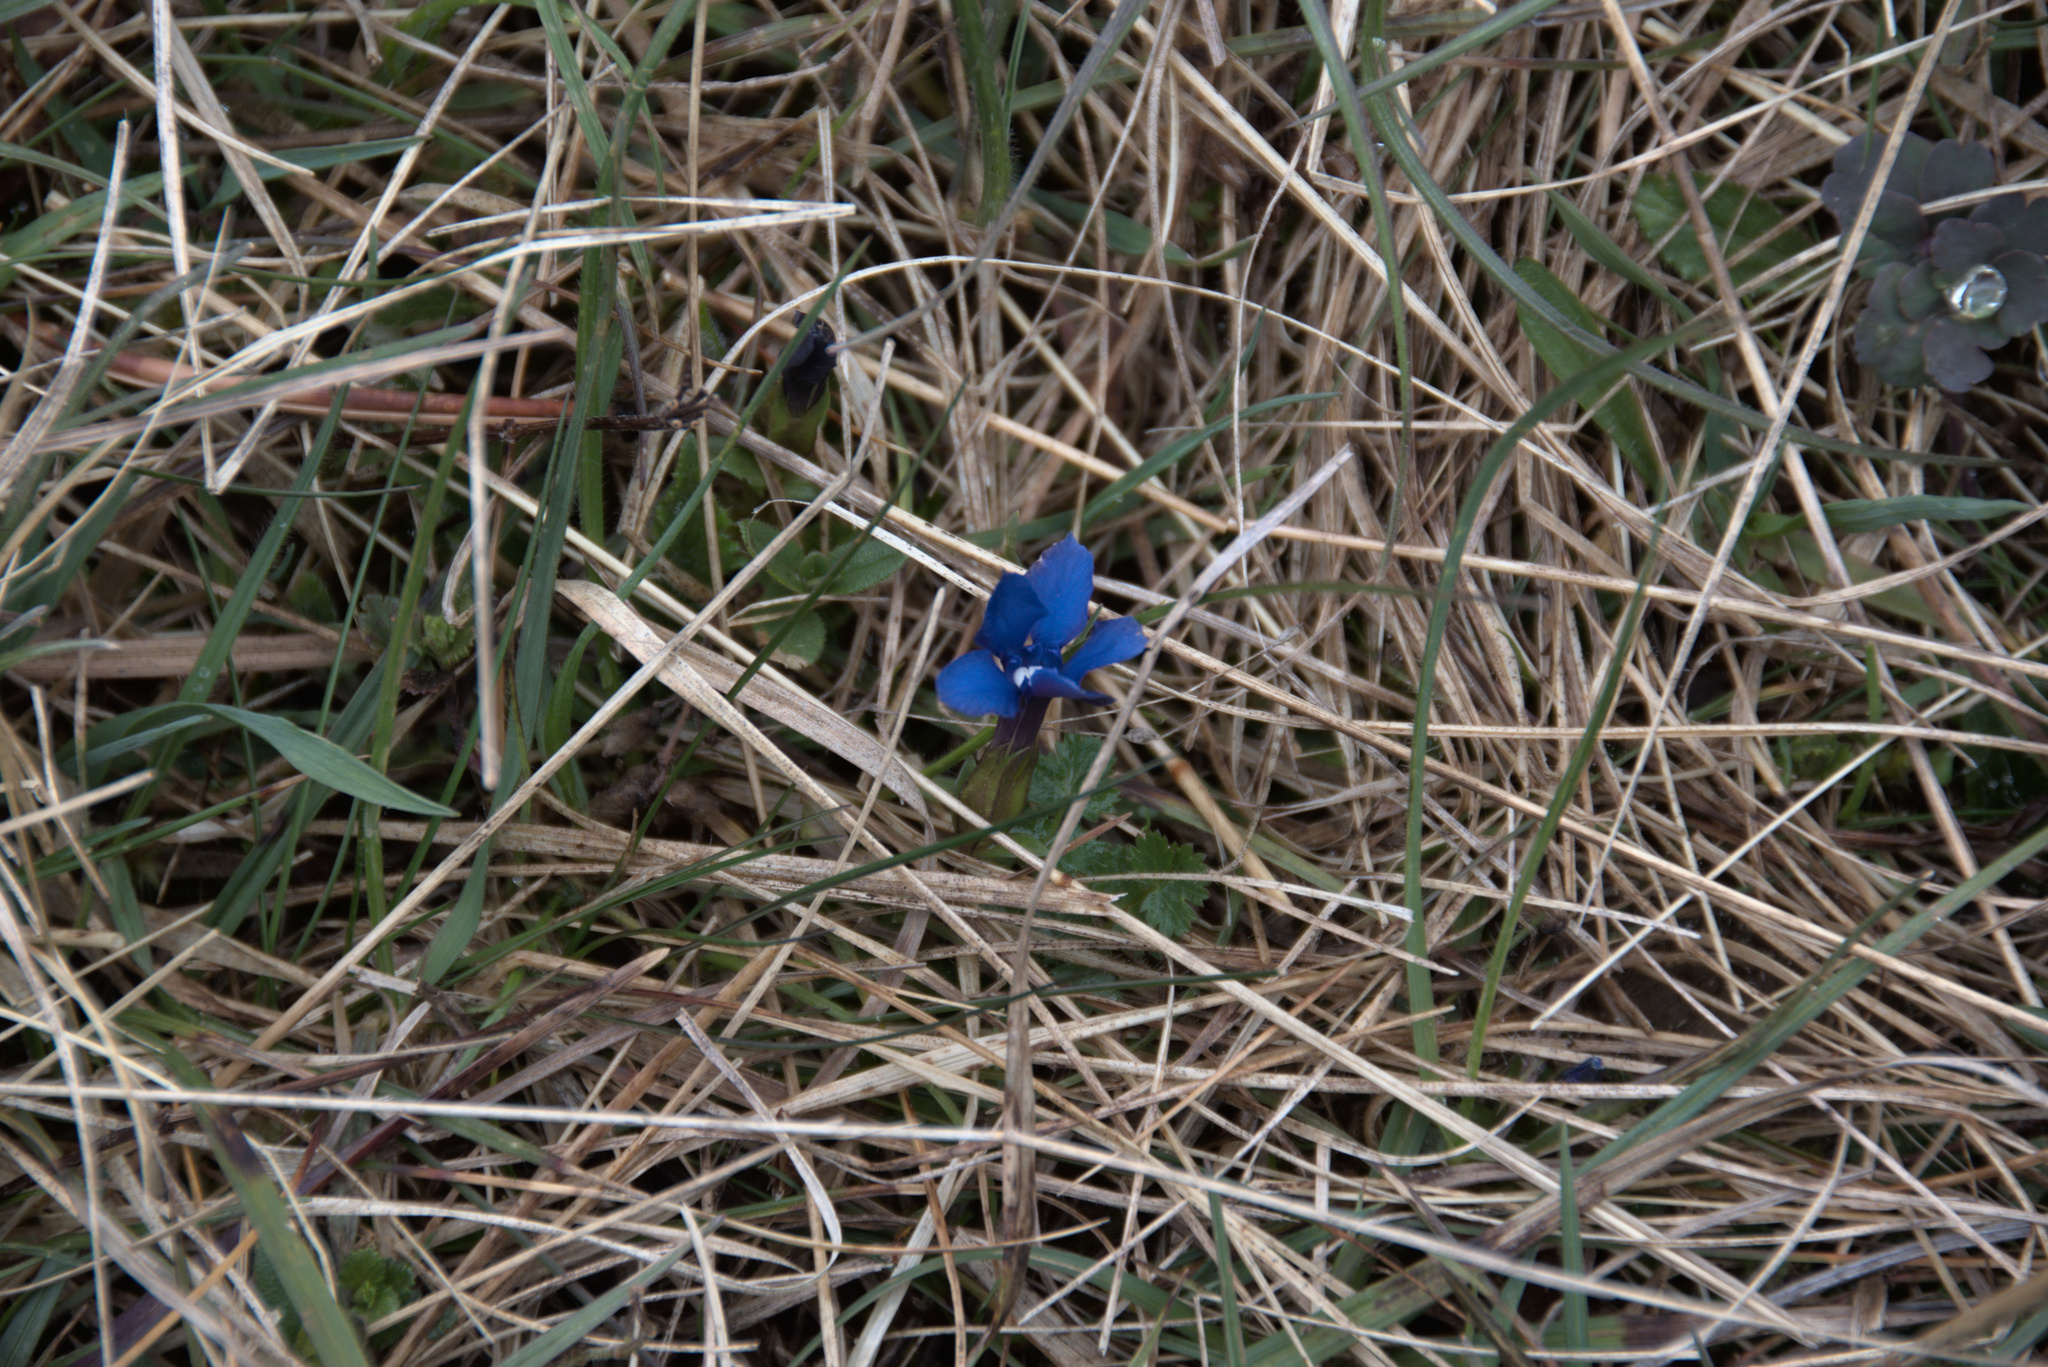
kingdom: Plantae
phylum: Tracheophyta
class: Magnoliopsida
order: Gentianales
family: Gentianaceae
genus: Gentiana
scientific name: Gentiana verna
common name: Spring gentian
